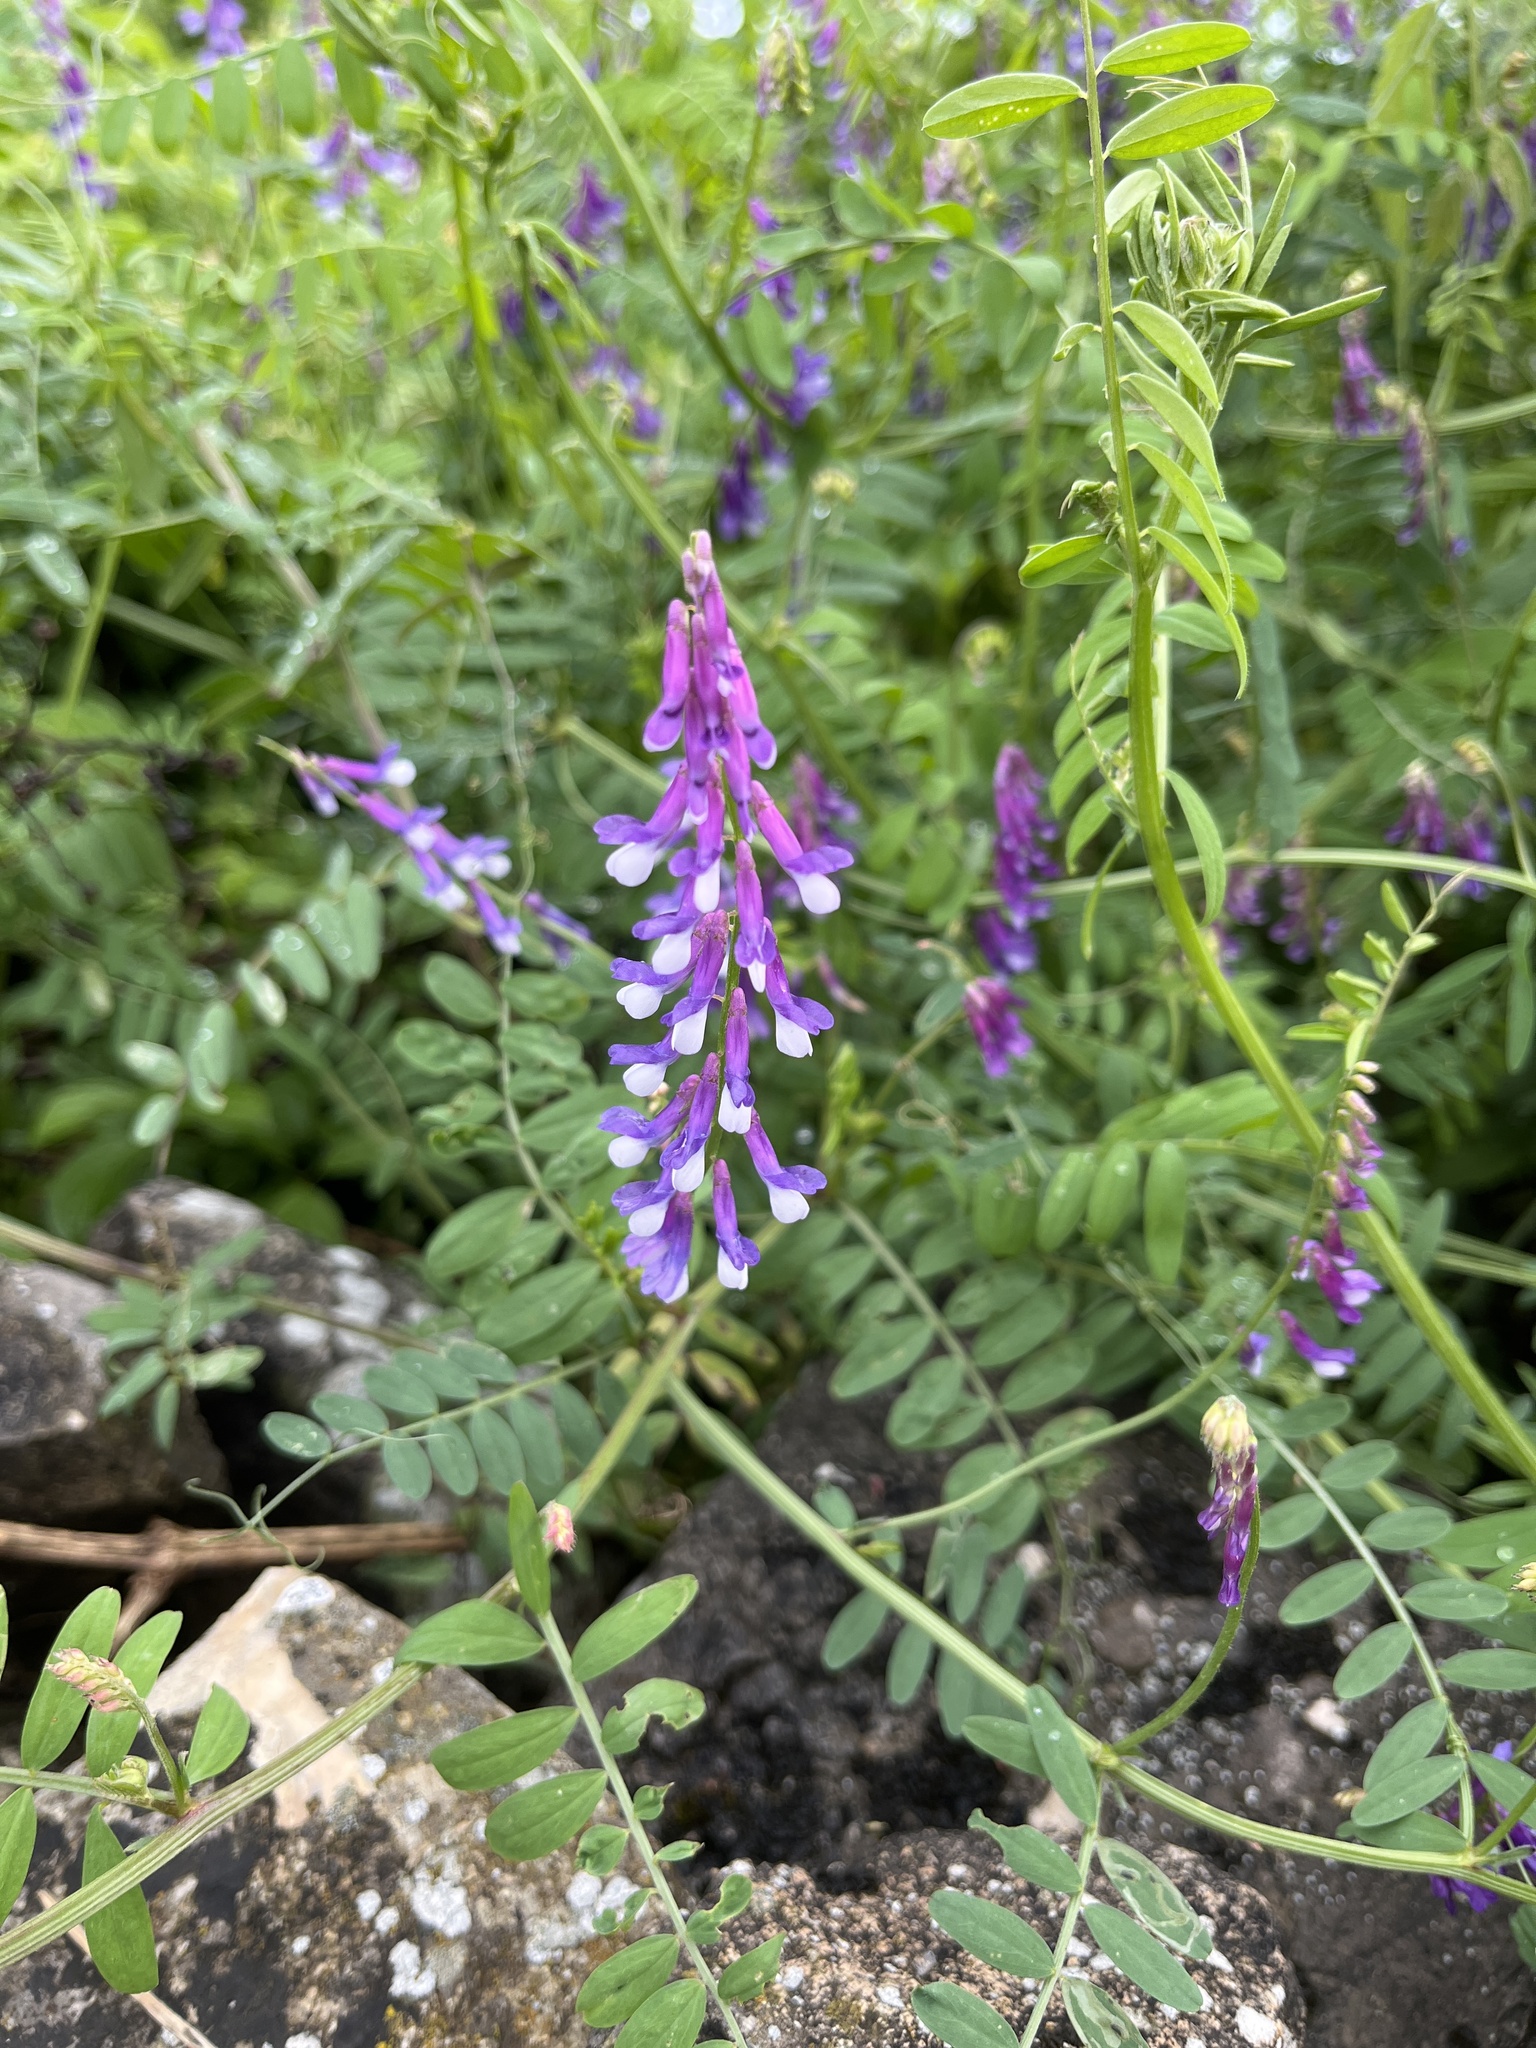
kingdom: Plantae
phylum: Tracheophyta
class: Magnoliopsida
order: Fabales
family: Fabaceae
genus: Vicia
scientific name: Vicia villosa
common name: Fodder vetch
